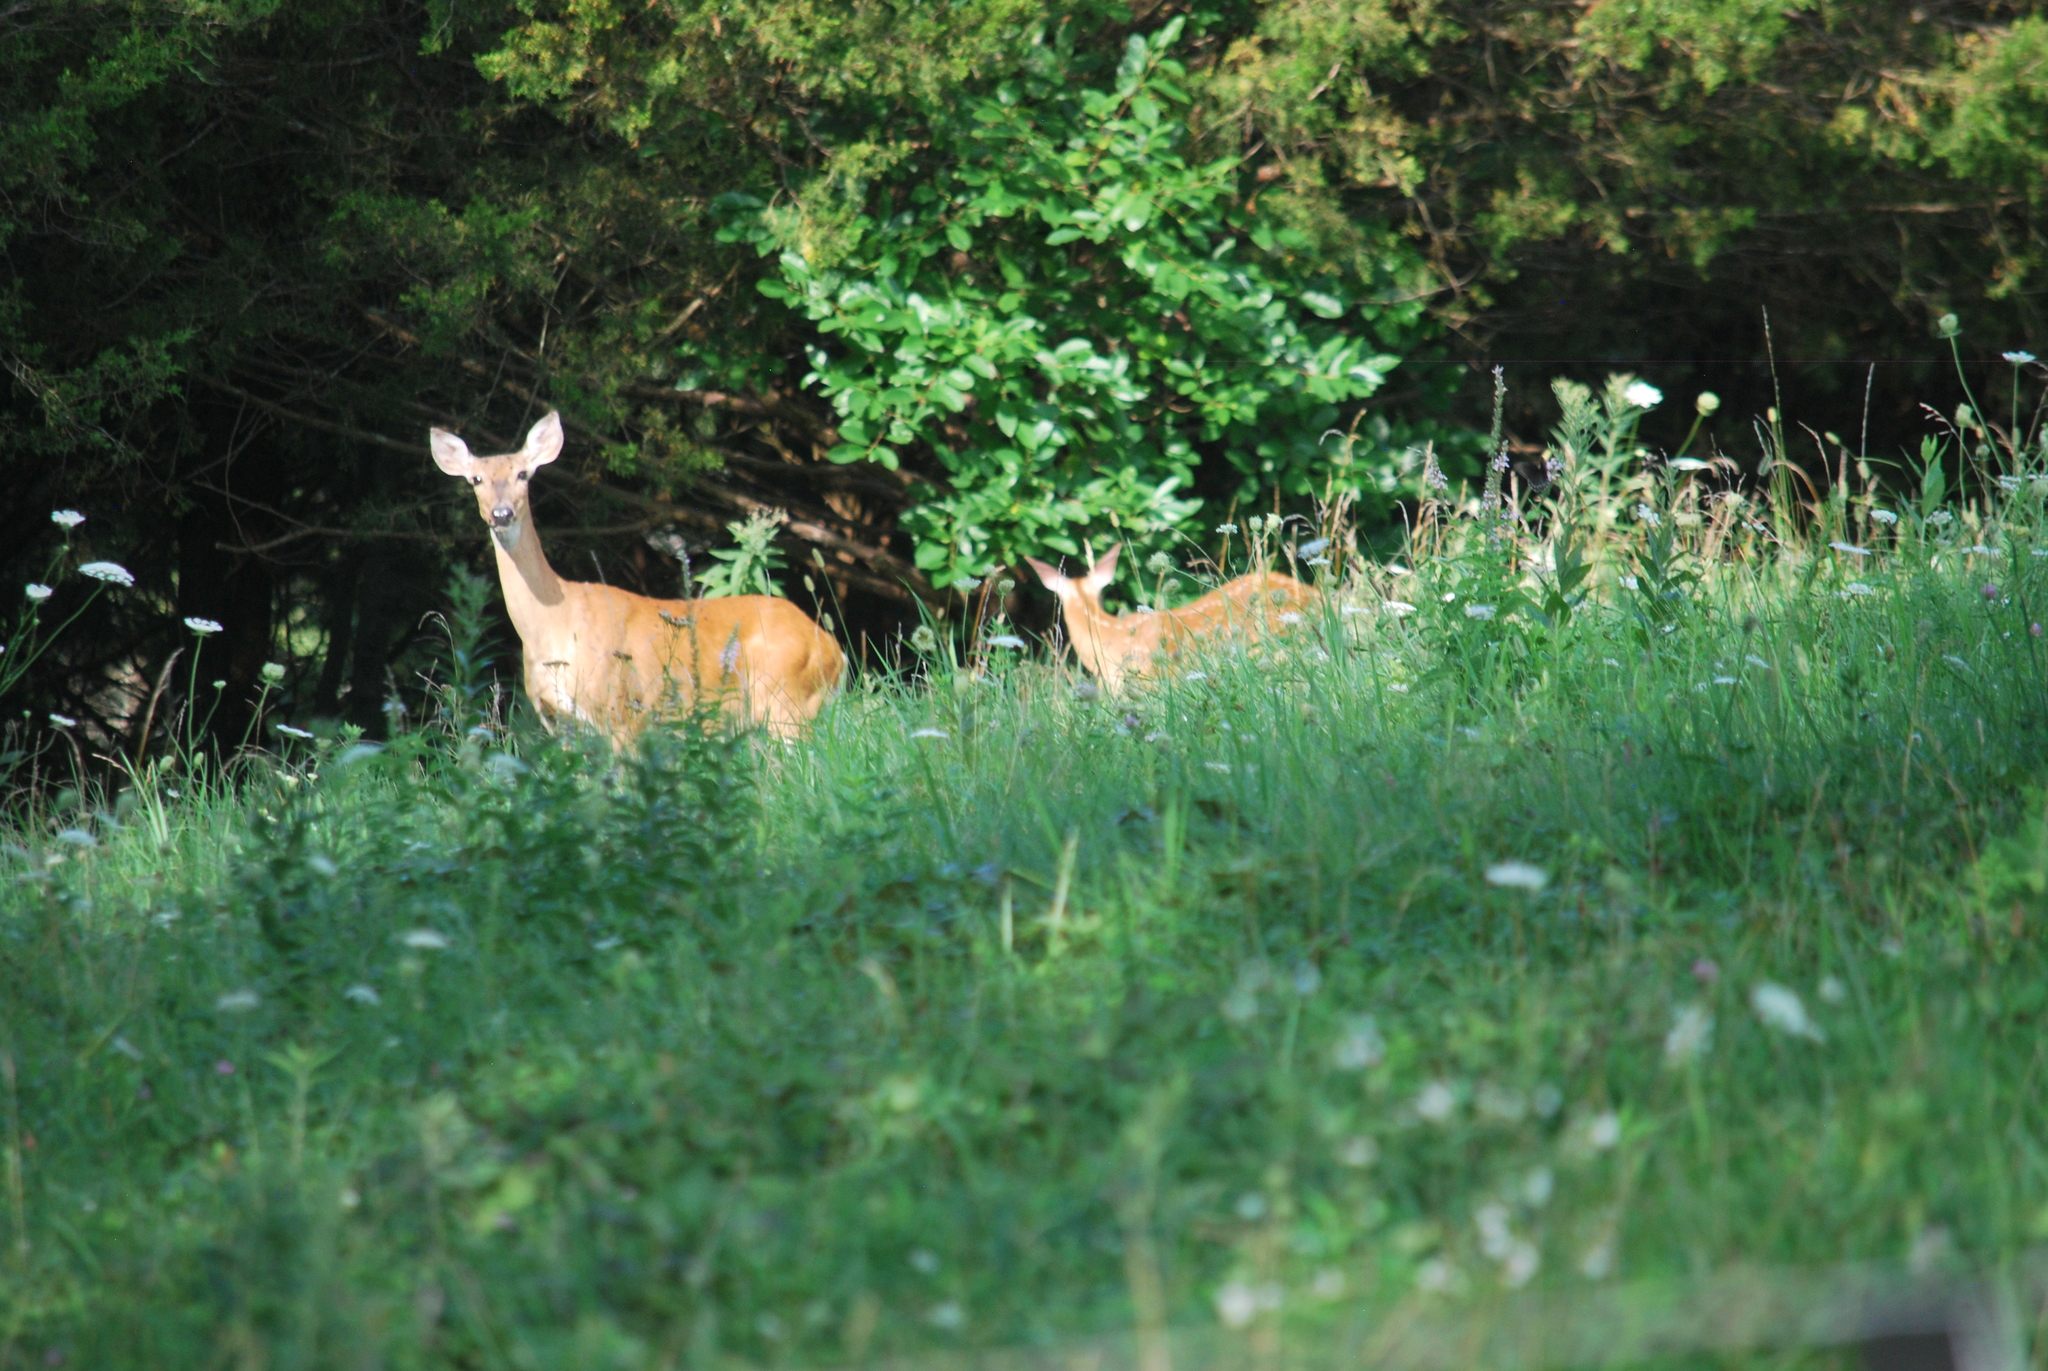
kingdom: Animalia
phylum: Chordata
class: Mammalia
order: Artiodactyla
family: Cervidae
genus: Odocoileus
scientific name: Odocoileus virginianus
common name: White-tailed deer
